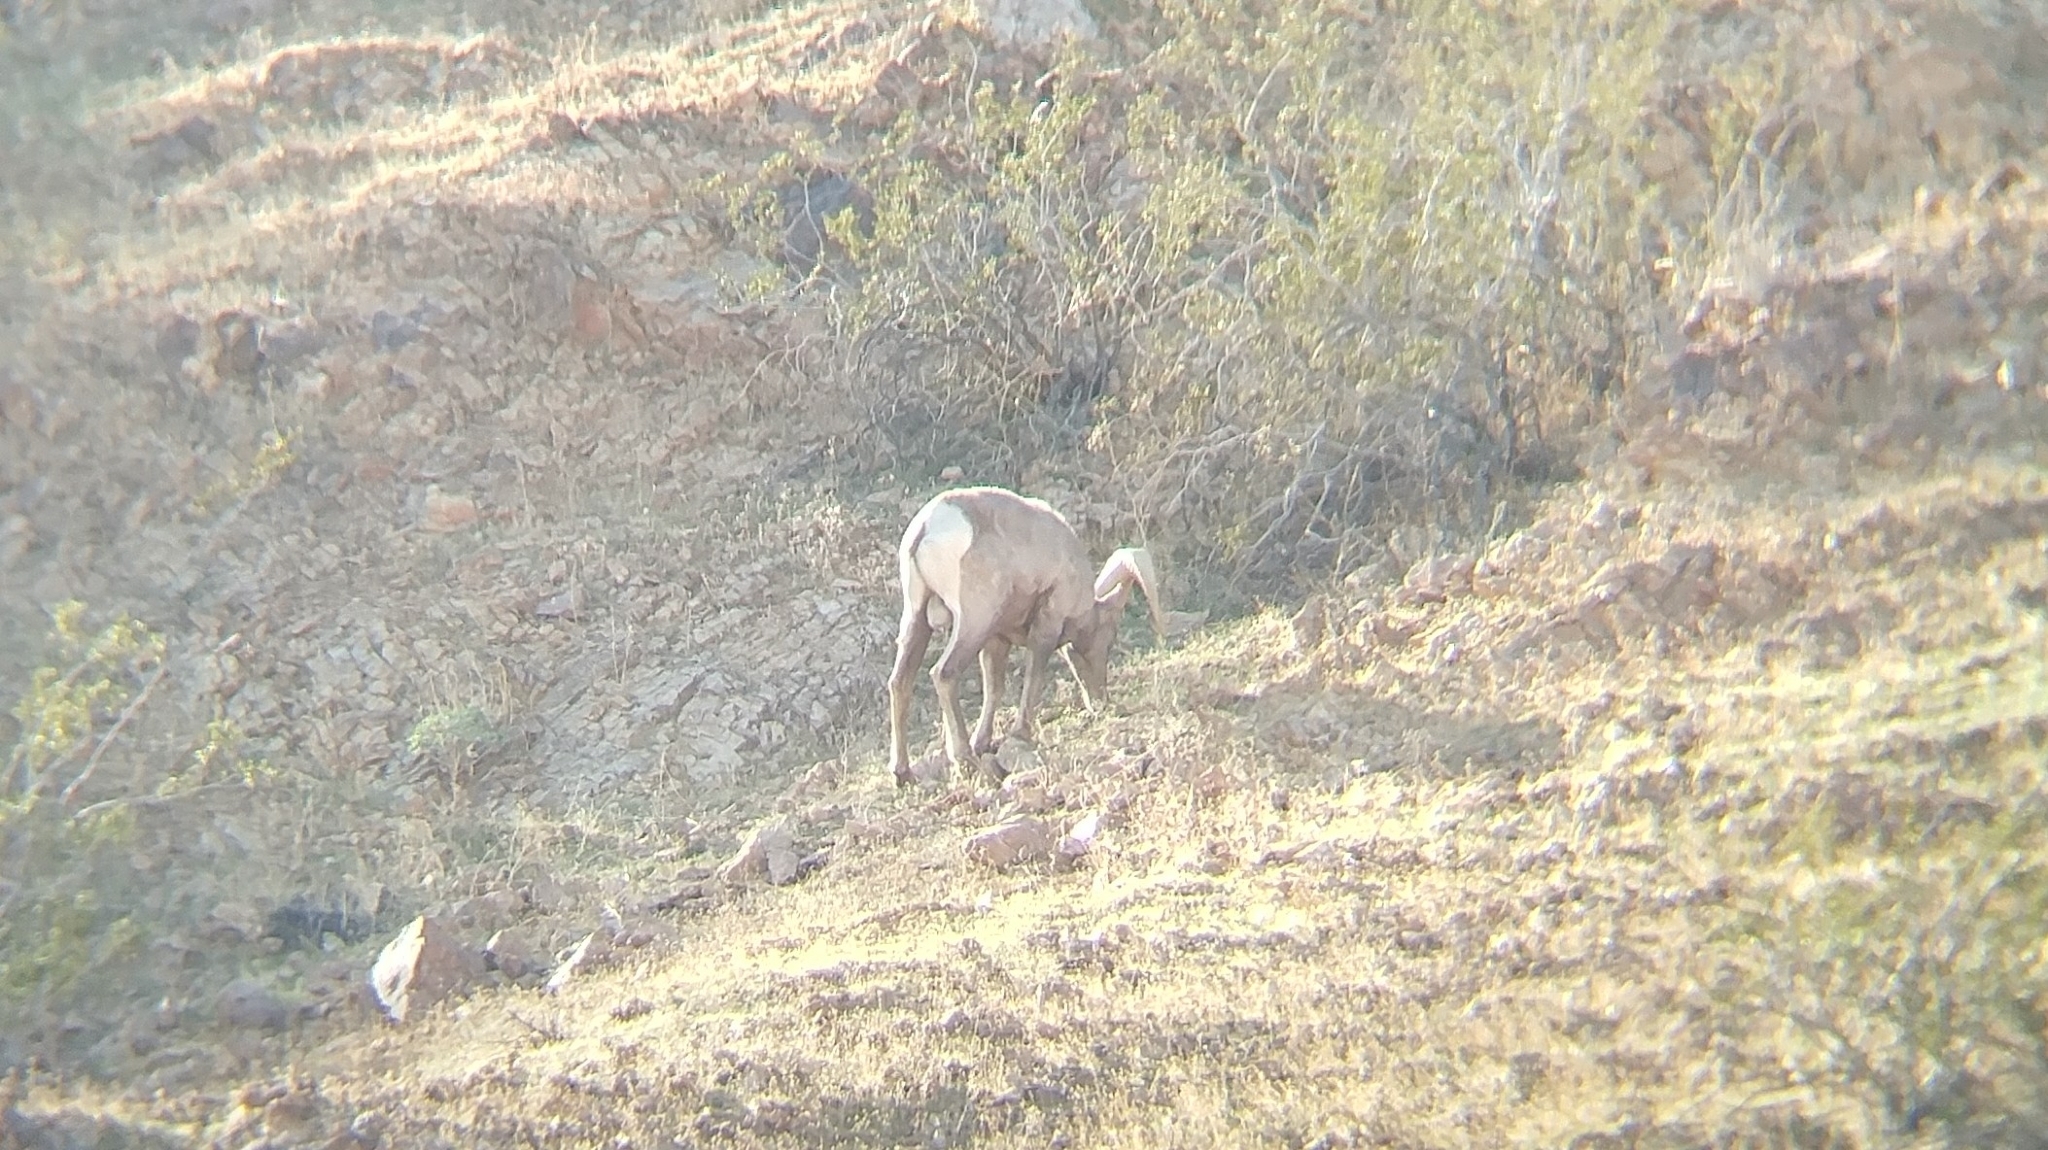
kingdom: Animalia
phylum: Chordata
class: Mammalia
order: Artiodactyla
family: Bovidae
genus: Ovis
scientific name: Ovis canadensis
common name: Bighorn sheep
